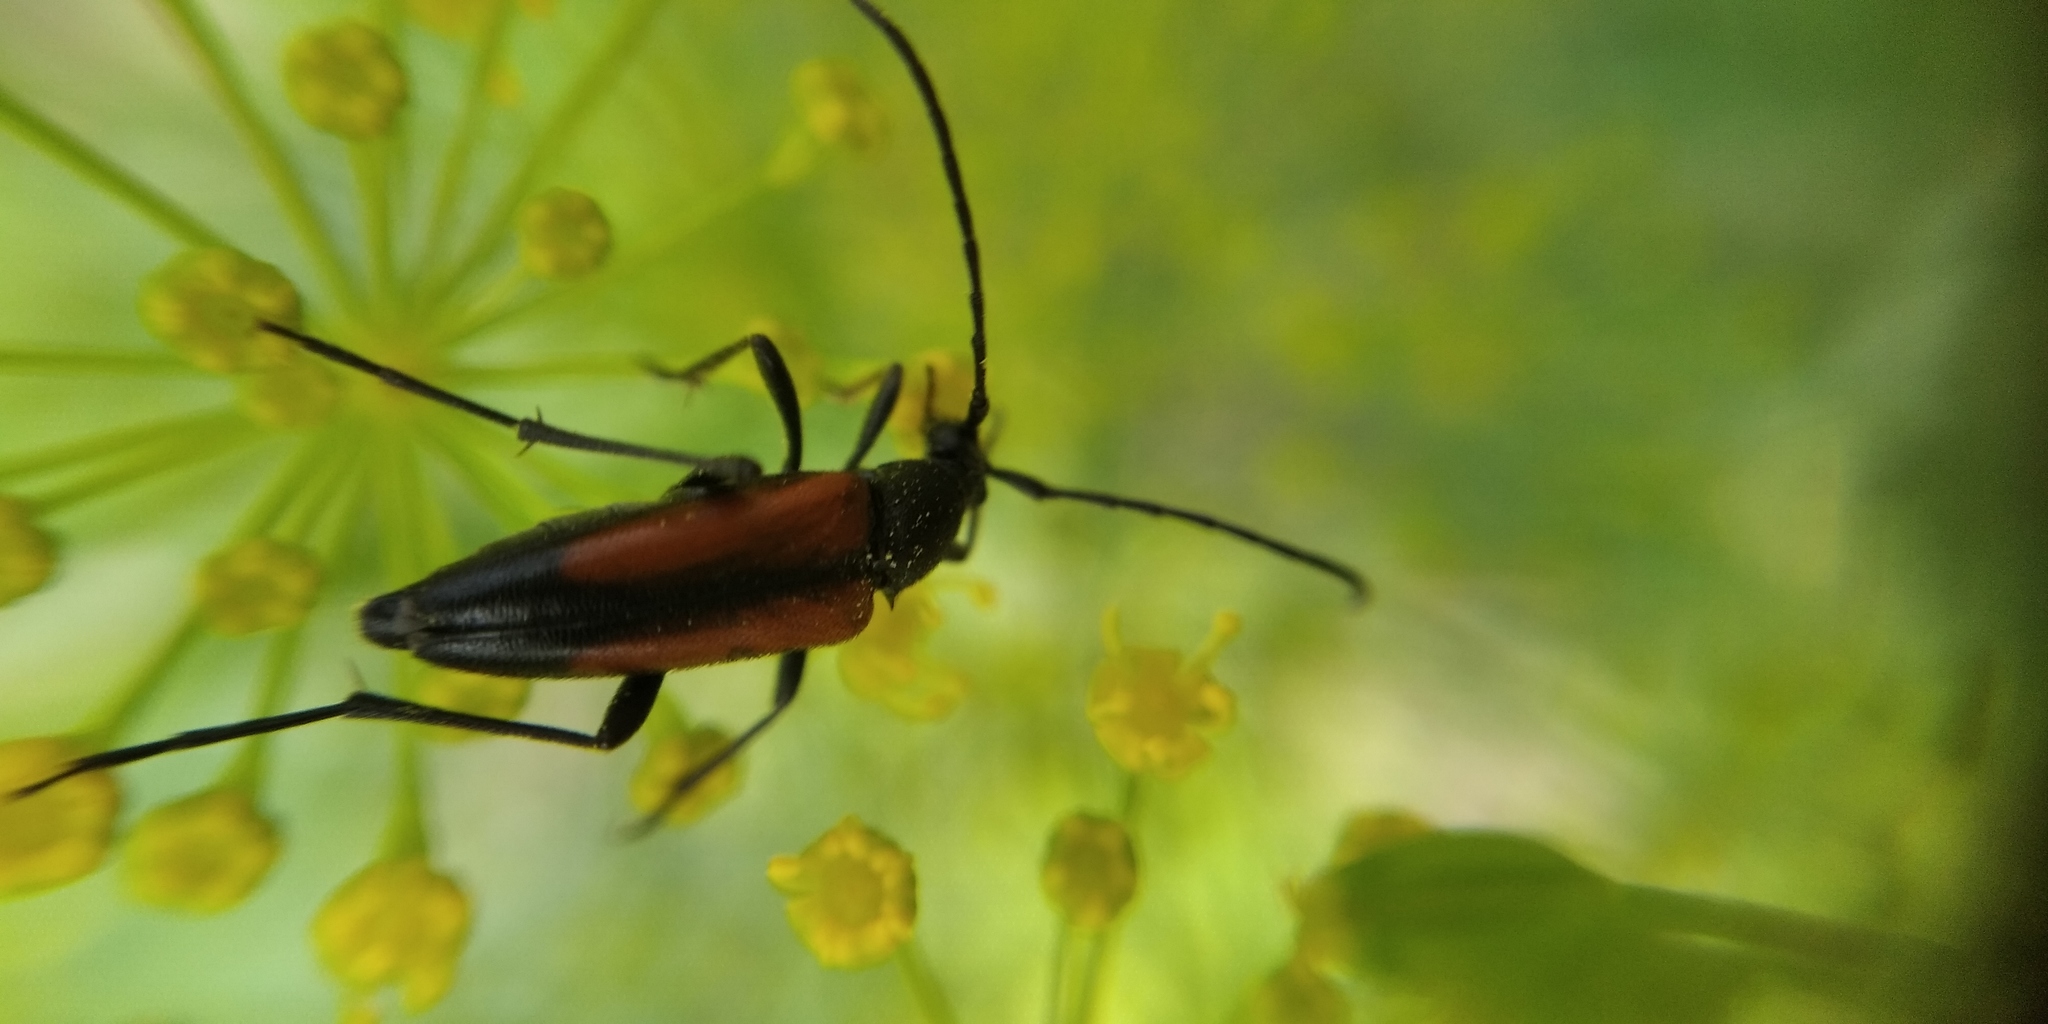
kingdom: Animalia
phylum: Arthropoda
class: Insecta
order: Coleoptera
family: Cerambycidae
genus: Stenurella
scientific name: Stenurella melanura
